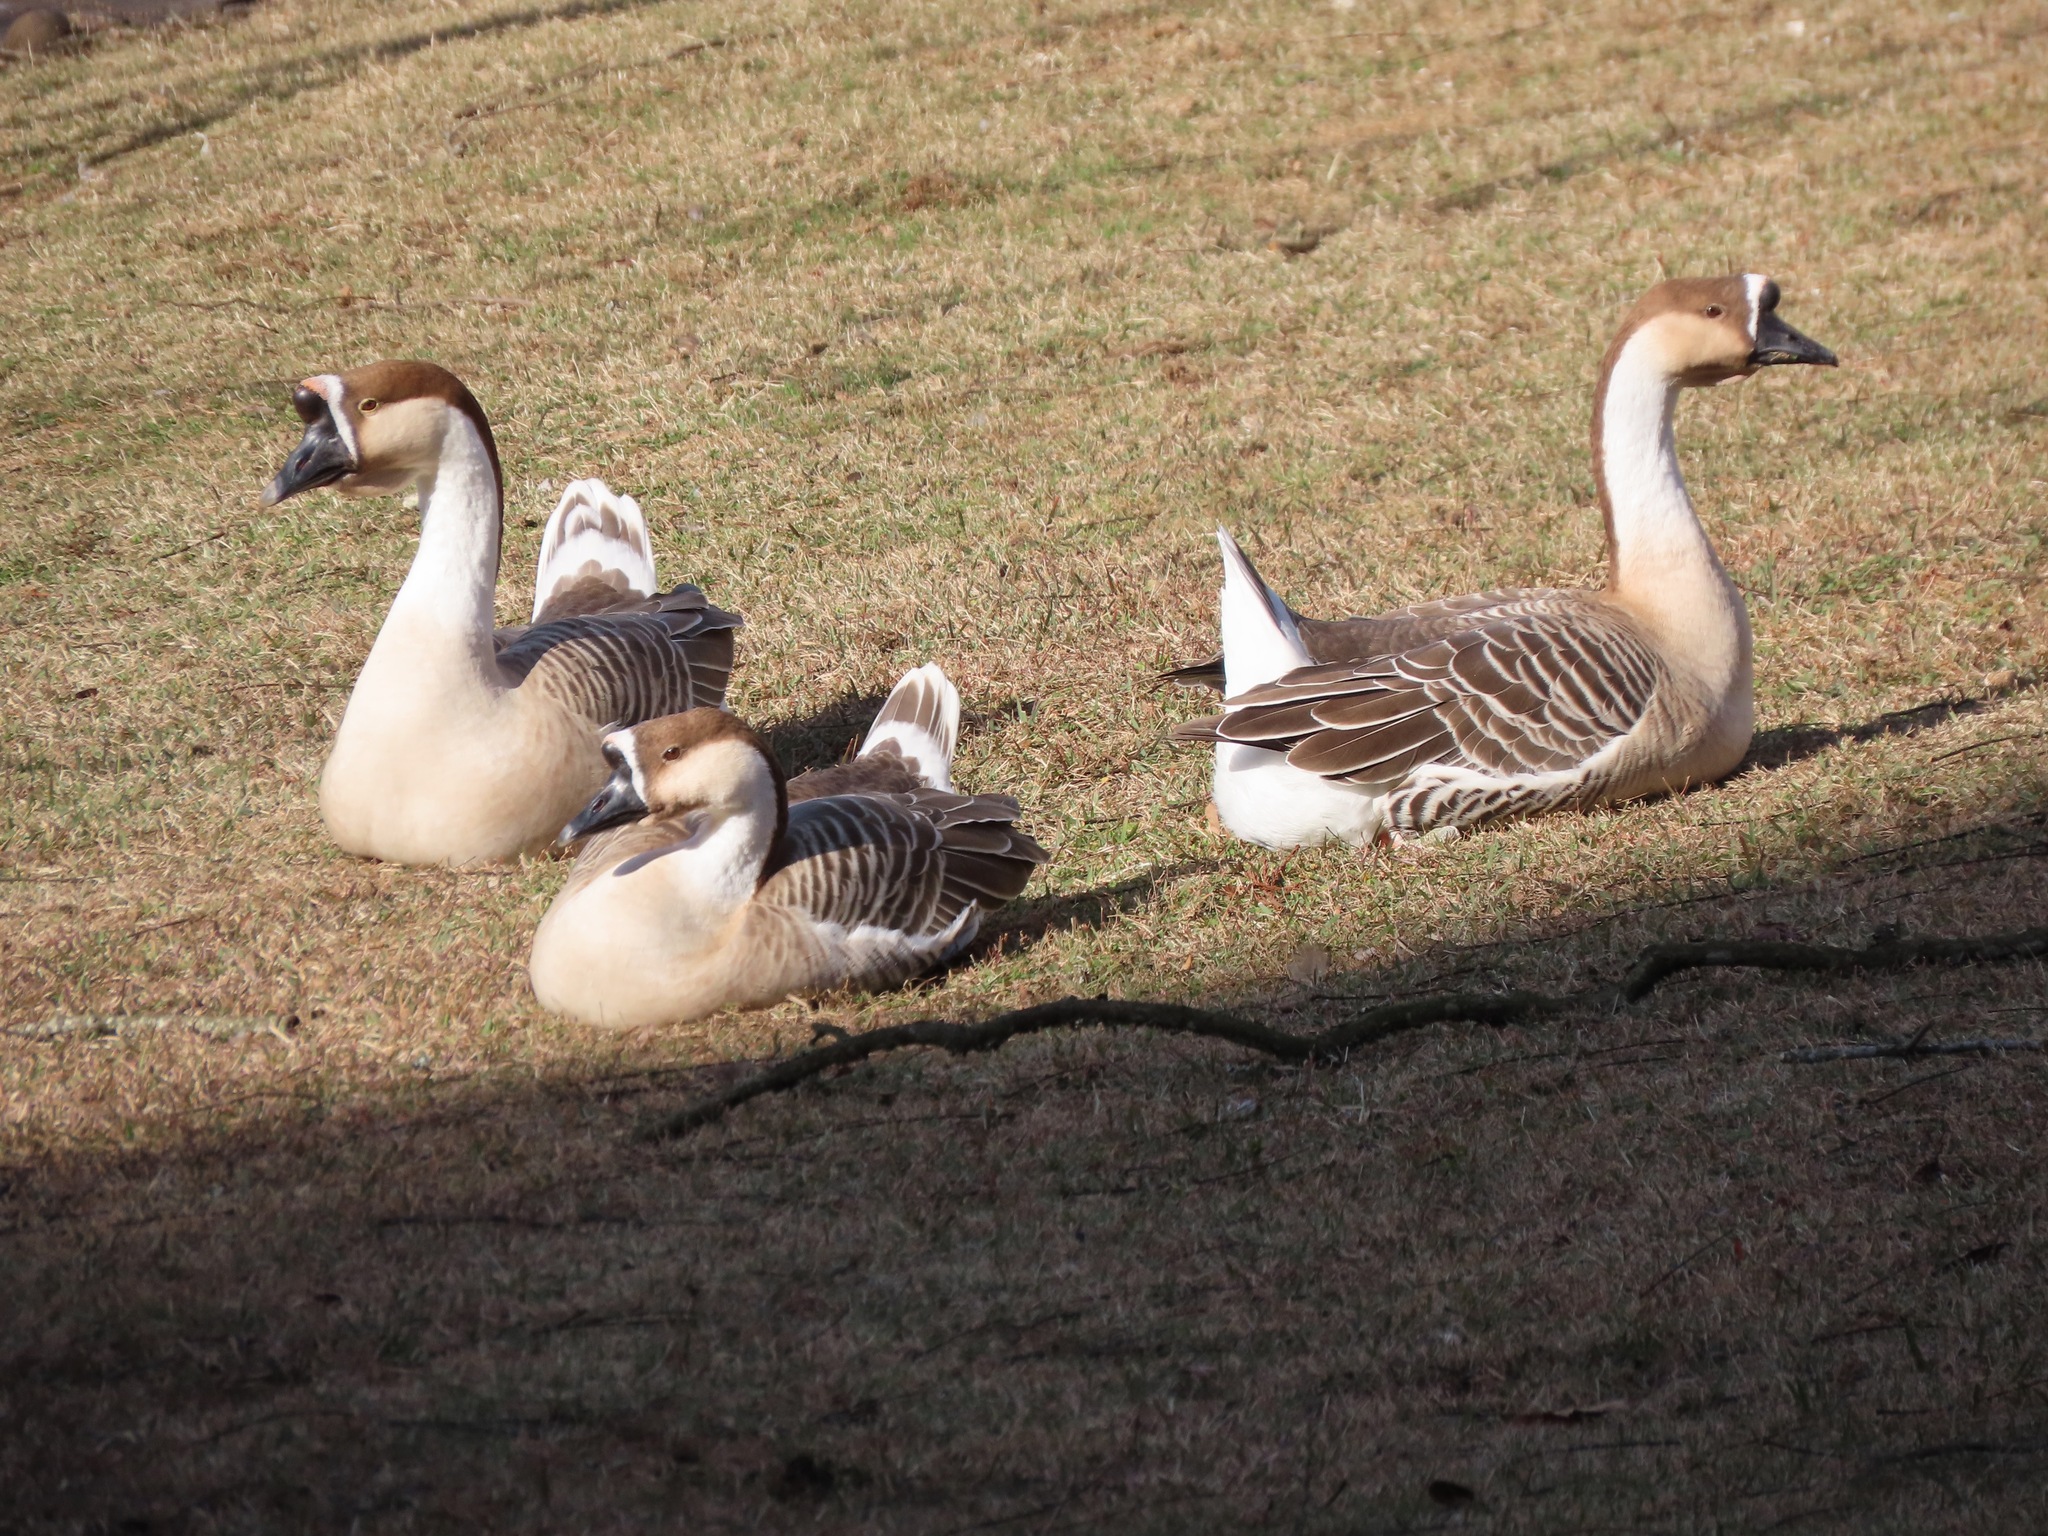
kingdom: Animalia
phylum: Chordata
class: Aves
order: Anseriformes
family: Anatidae
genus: Anser
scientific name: Anser cygnoides
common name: Swan goose
